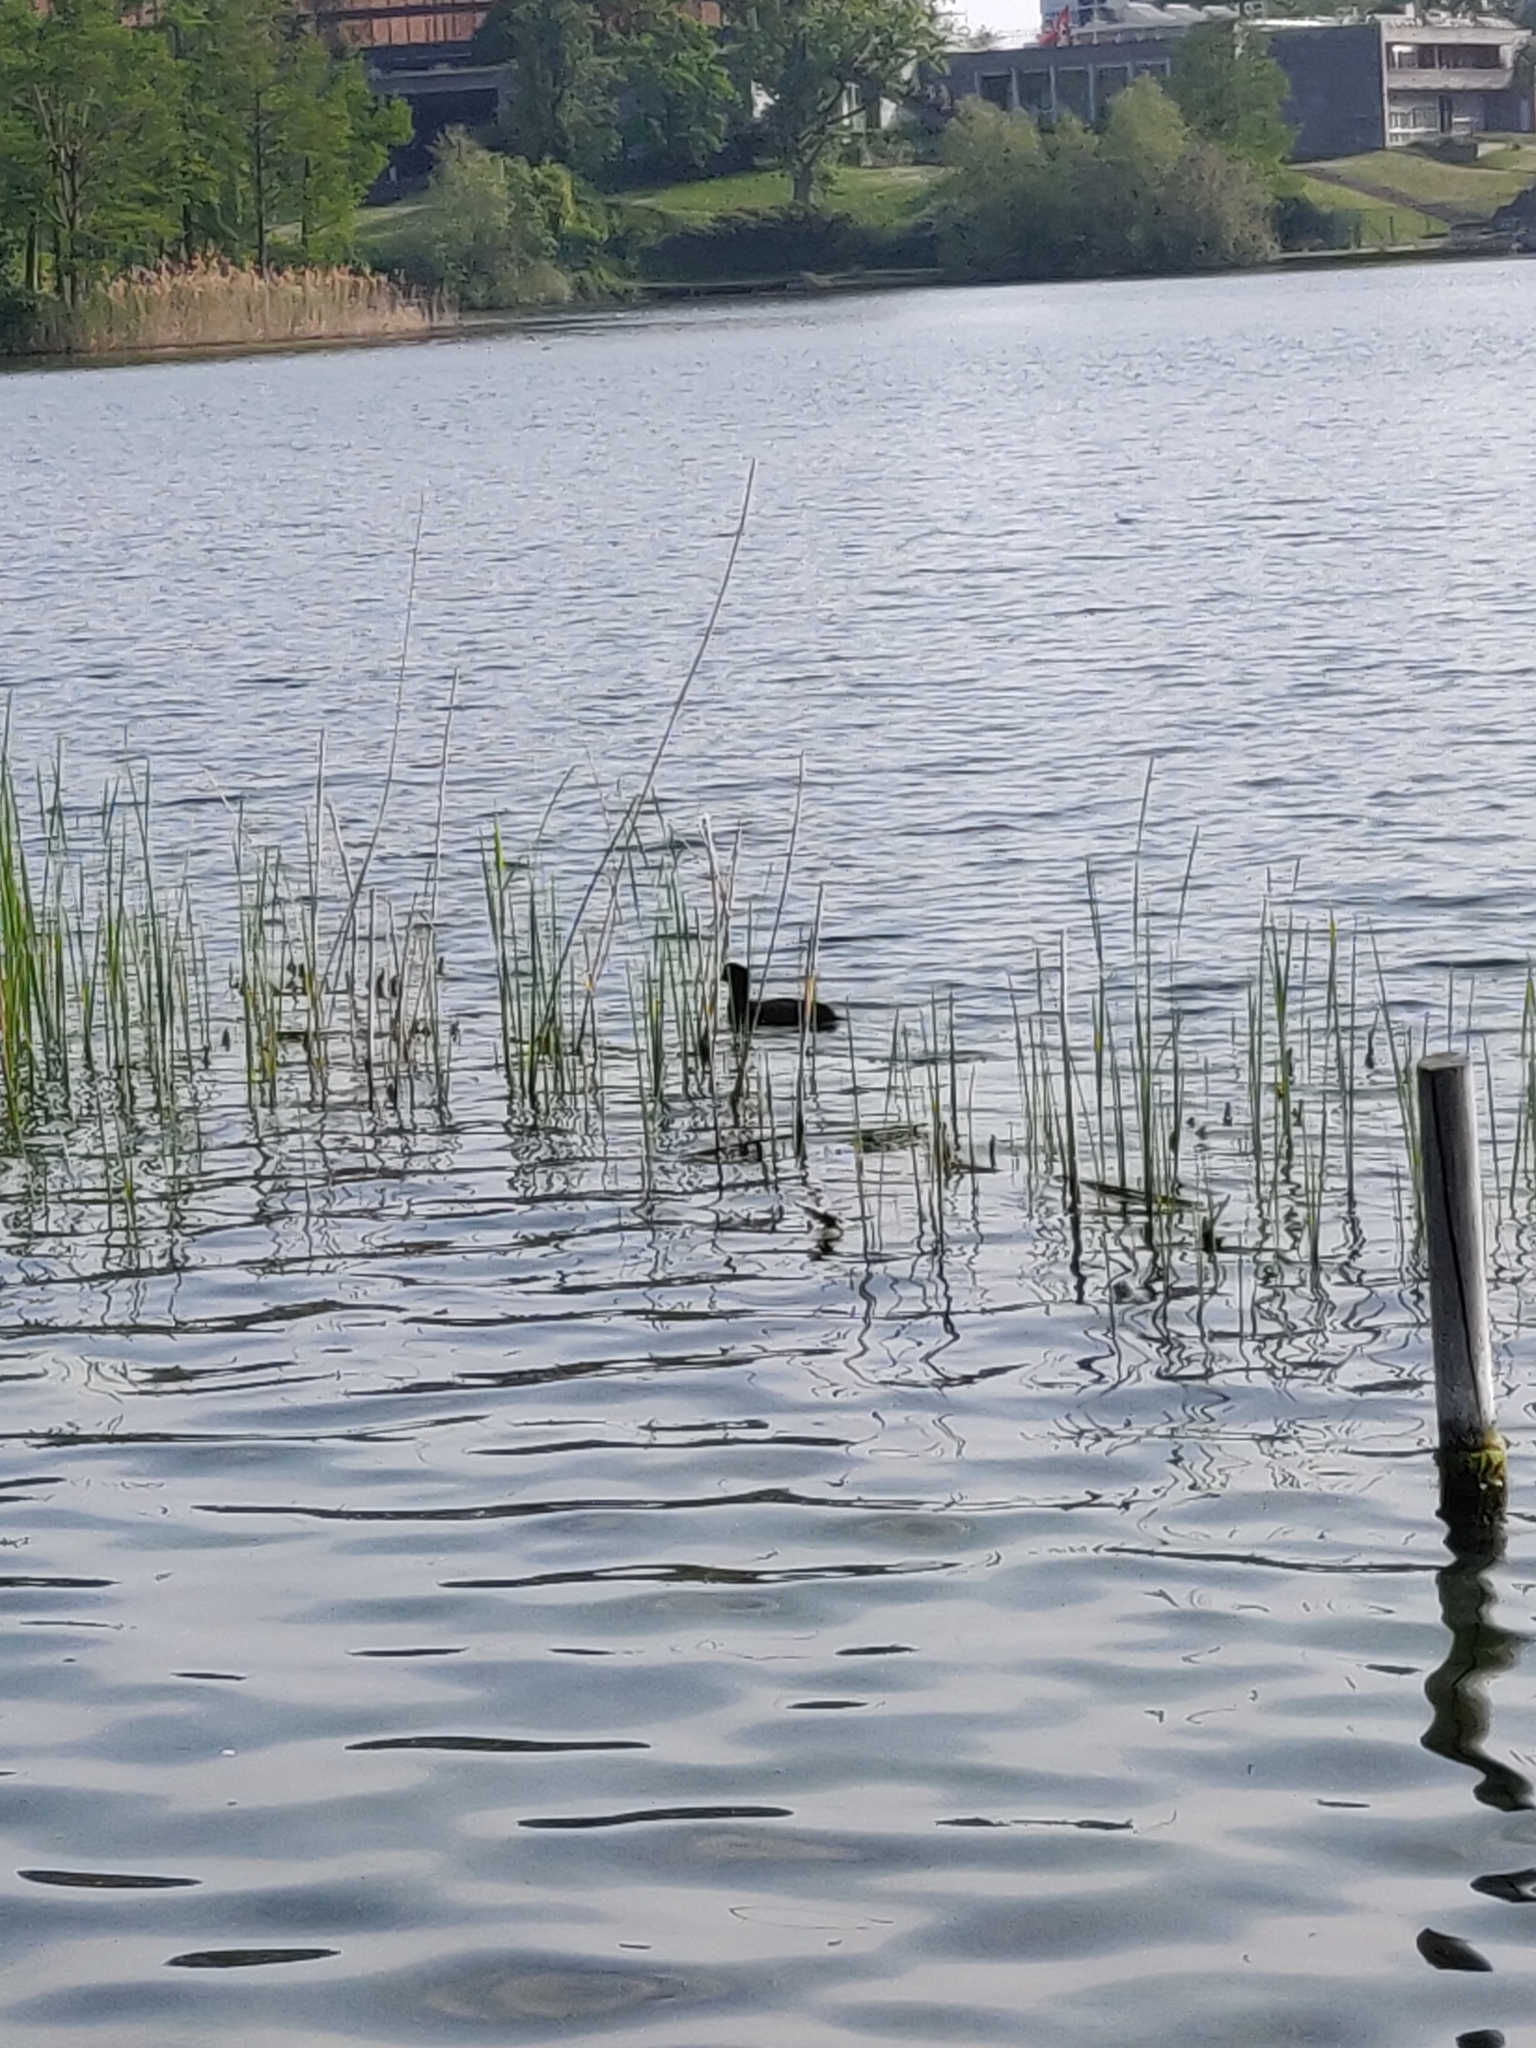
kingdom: Animalia
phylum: Chordata
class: Aves
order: Gruiformes
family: Rallidae
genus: Fulica
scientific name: Fulica atra
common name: Eurasian coot
